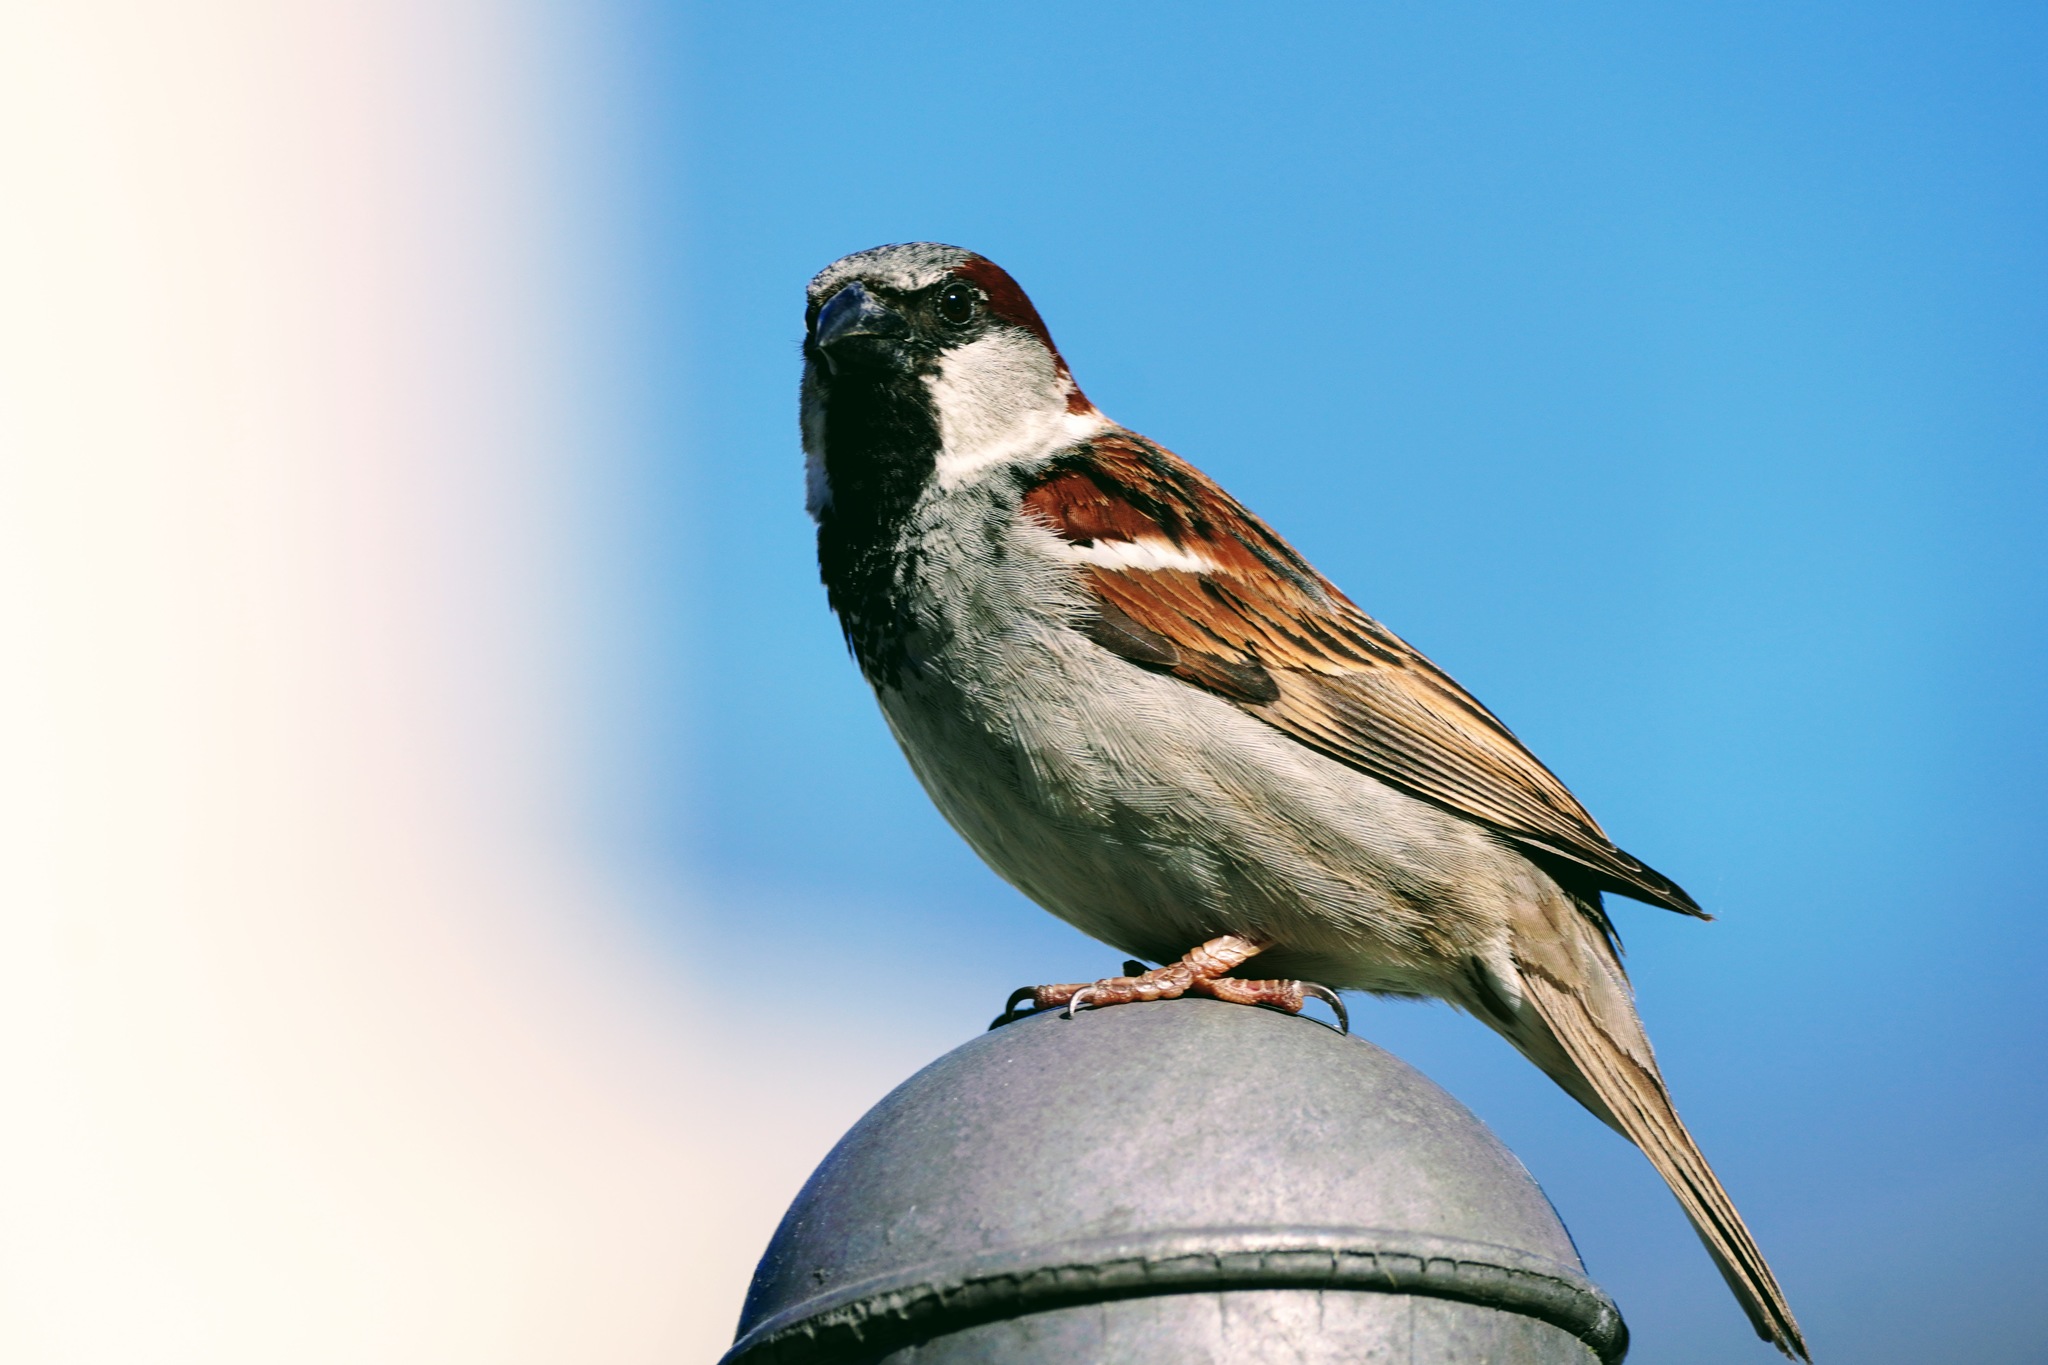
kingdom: Animalia
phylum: Chordata
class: Aves
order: Passeriformes
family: Passeridae
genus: Passer
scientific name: Passer domesticus
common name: House sparrow
